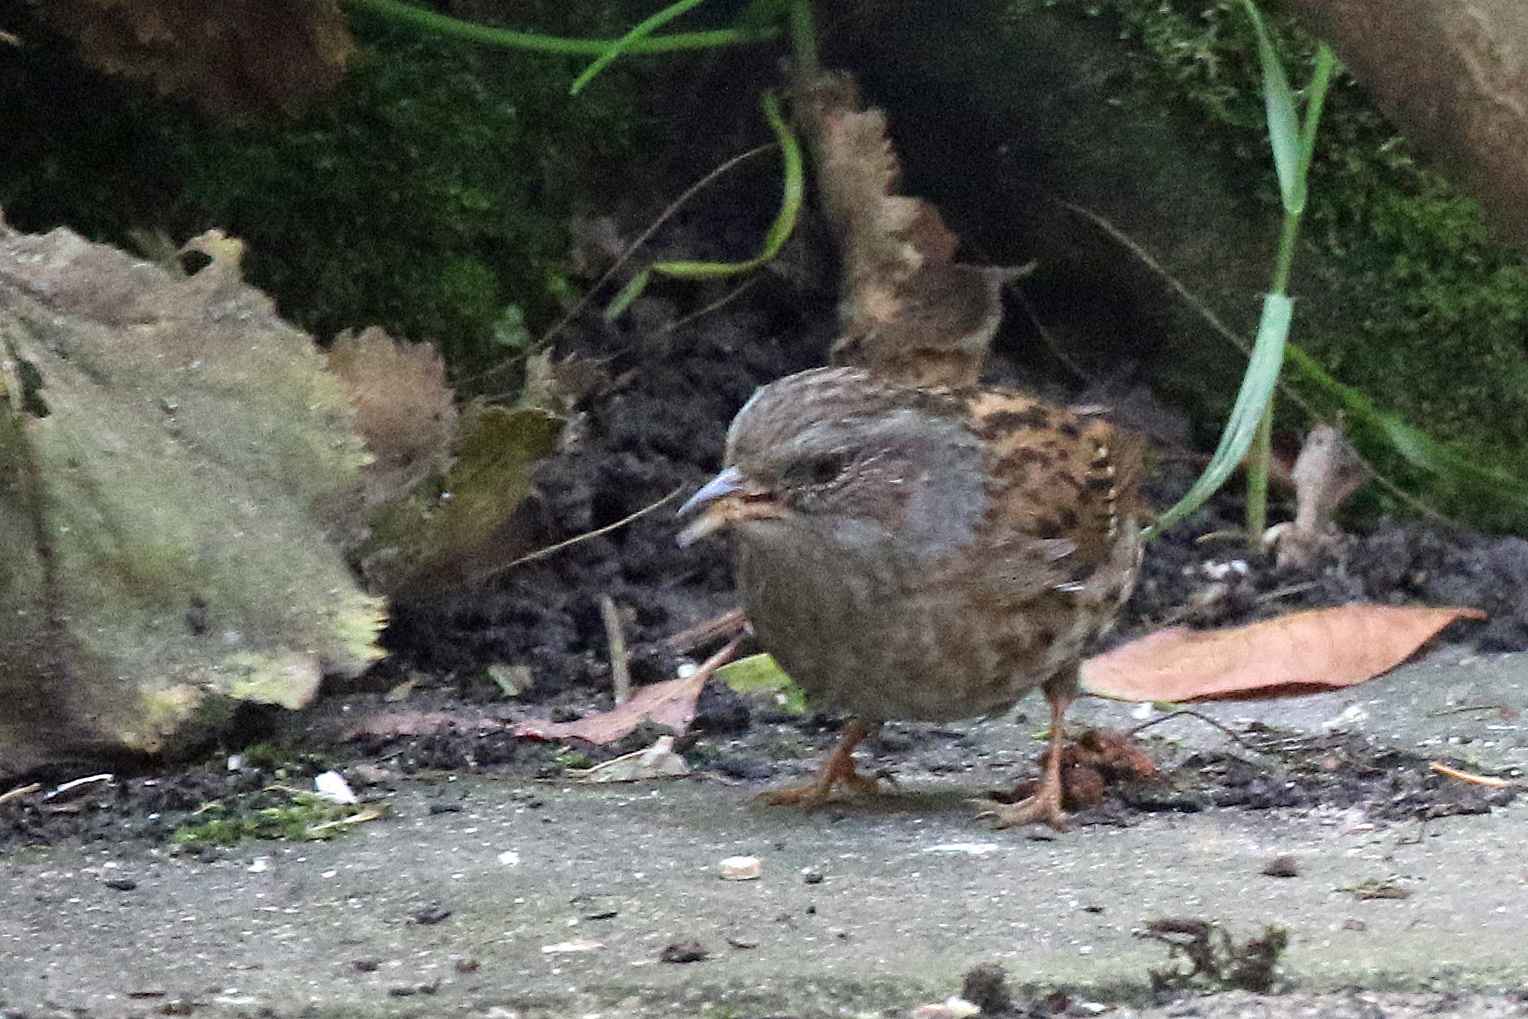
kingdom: Animalia
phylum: Chordata
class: Aves
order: Passeriformes
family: Prunellidae
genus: Prunella
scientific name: Prunella modularis
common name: Dunnock
